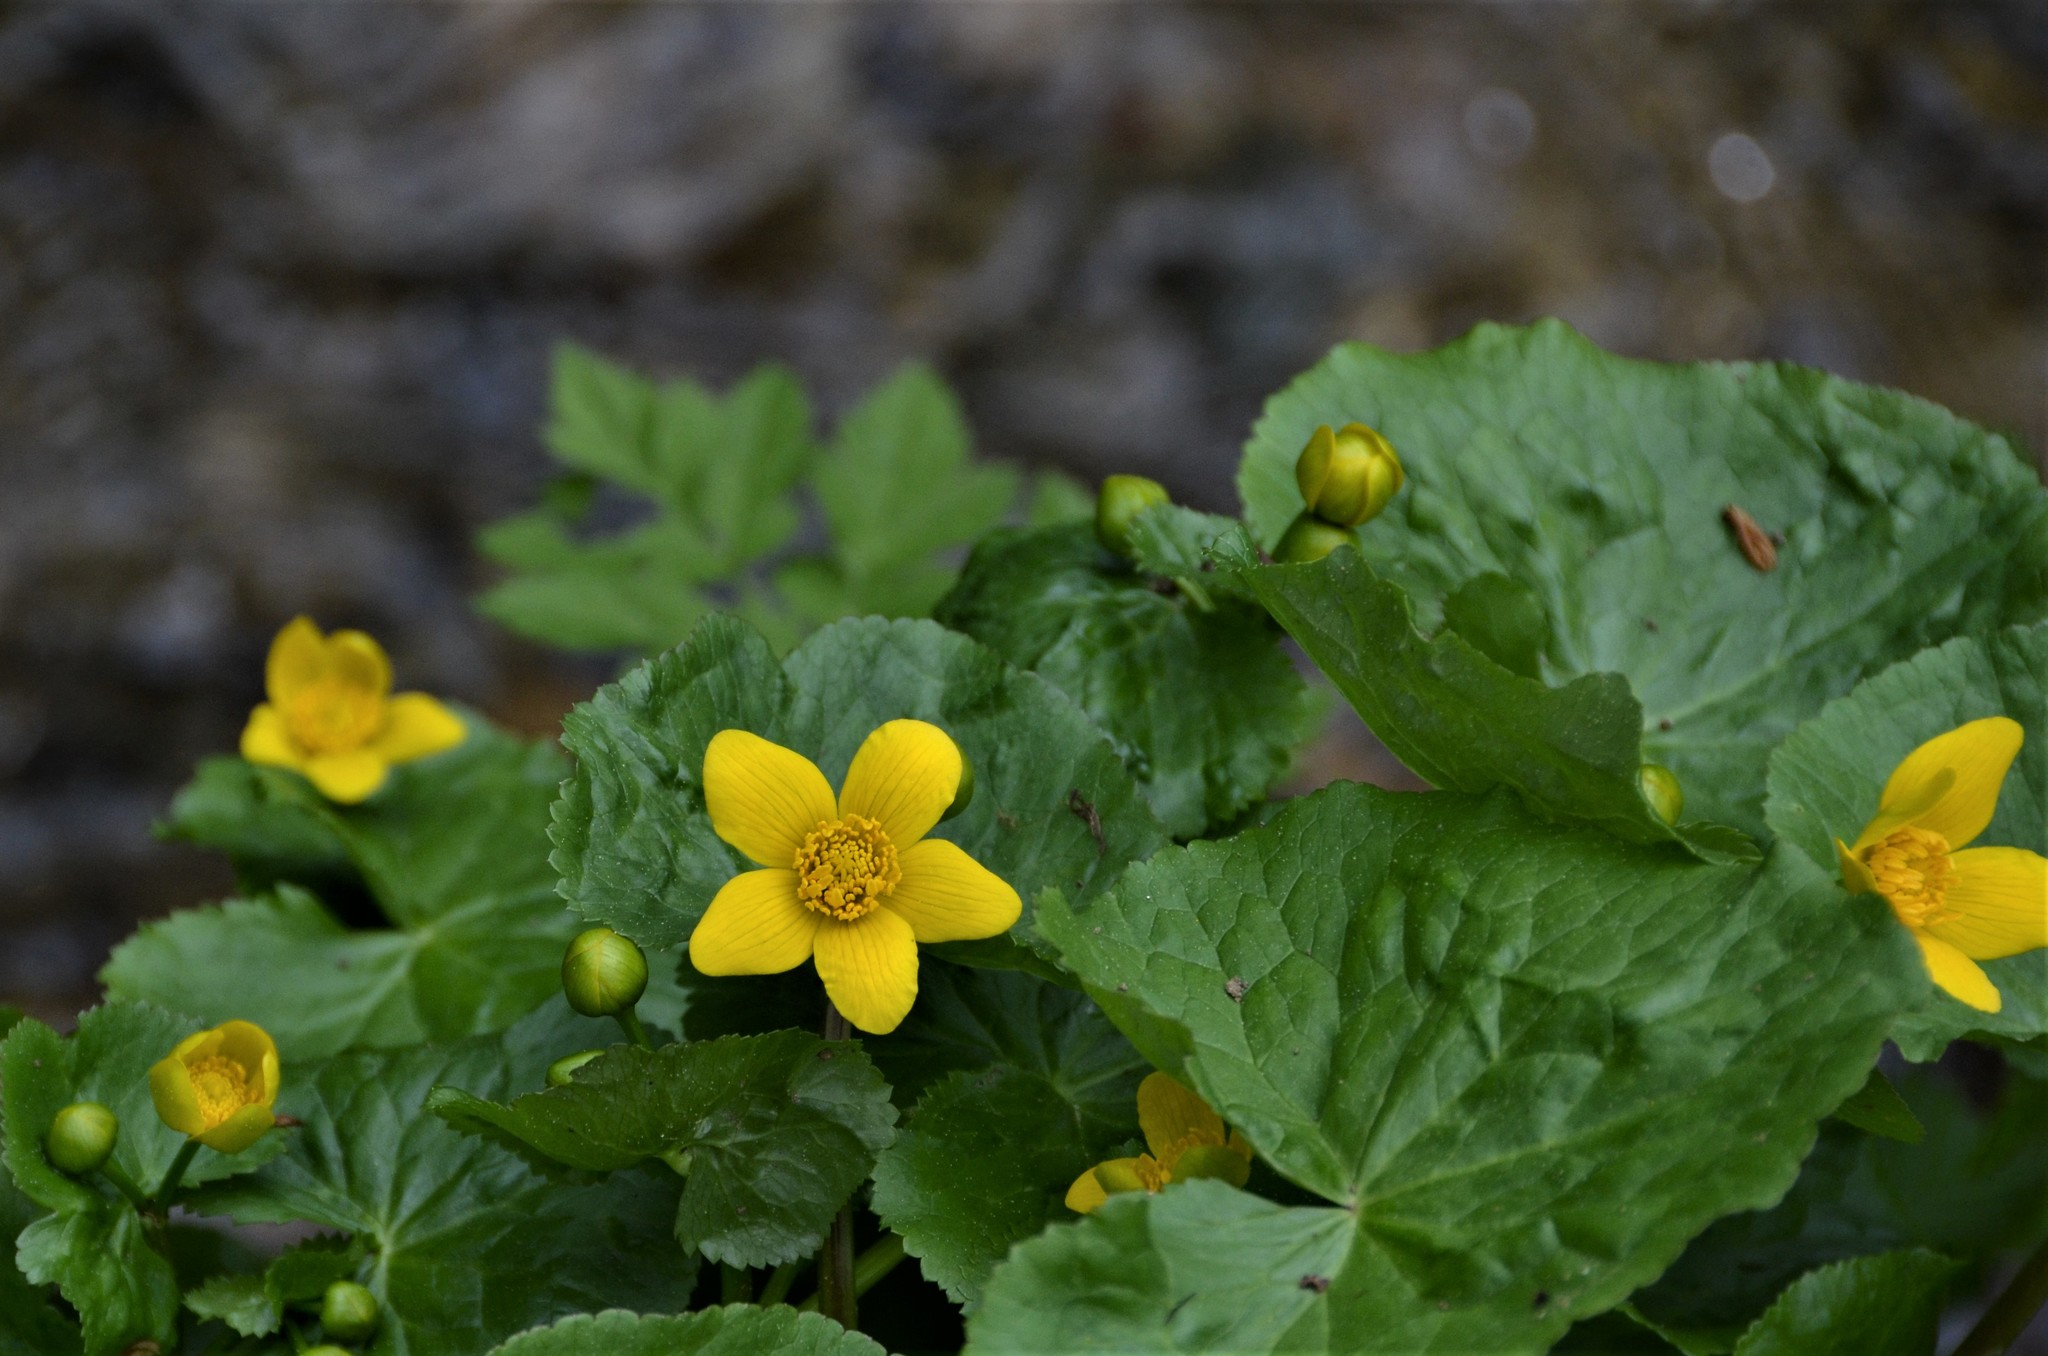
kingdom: Plantae
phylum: Tracheophyta
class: Magnoliopsida
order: Ranunculales
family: Ranunculaceae
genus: Caltha
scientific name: Caltha palustris
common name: Marsh marigold
